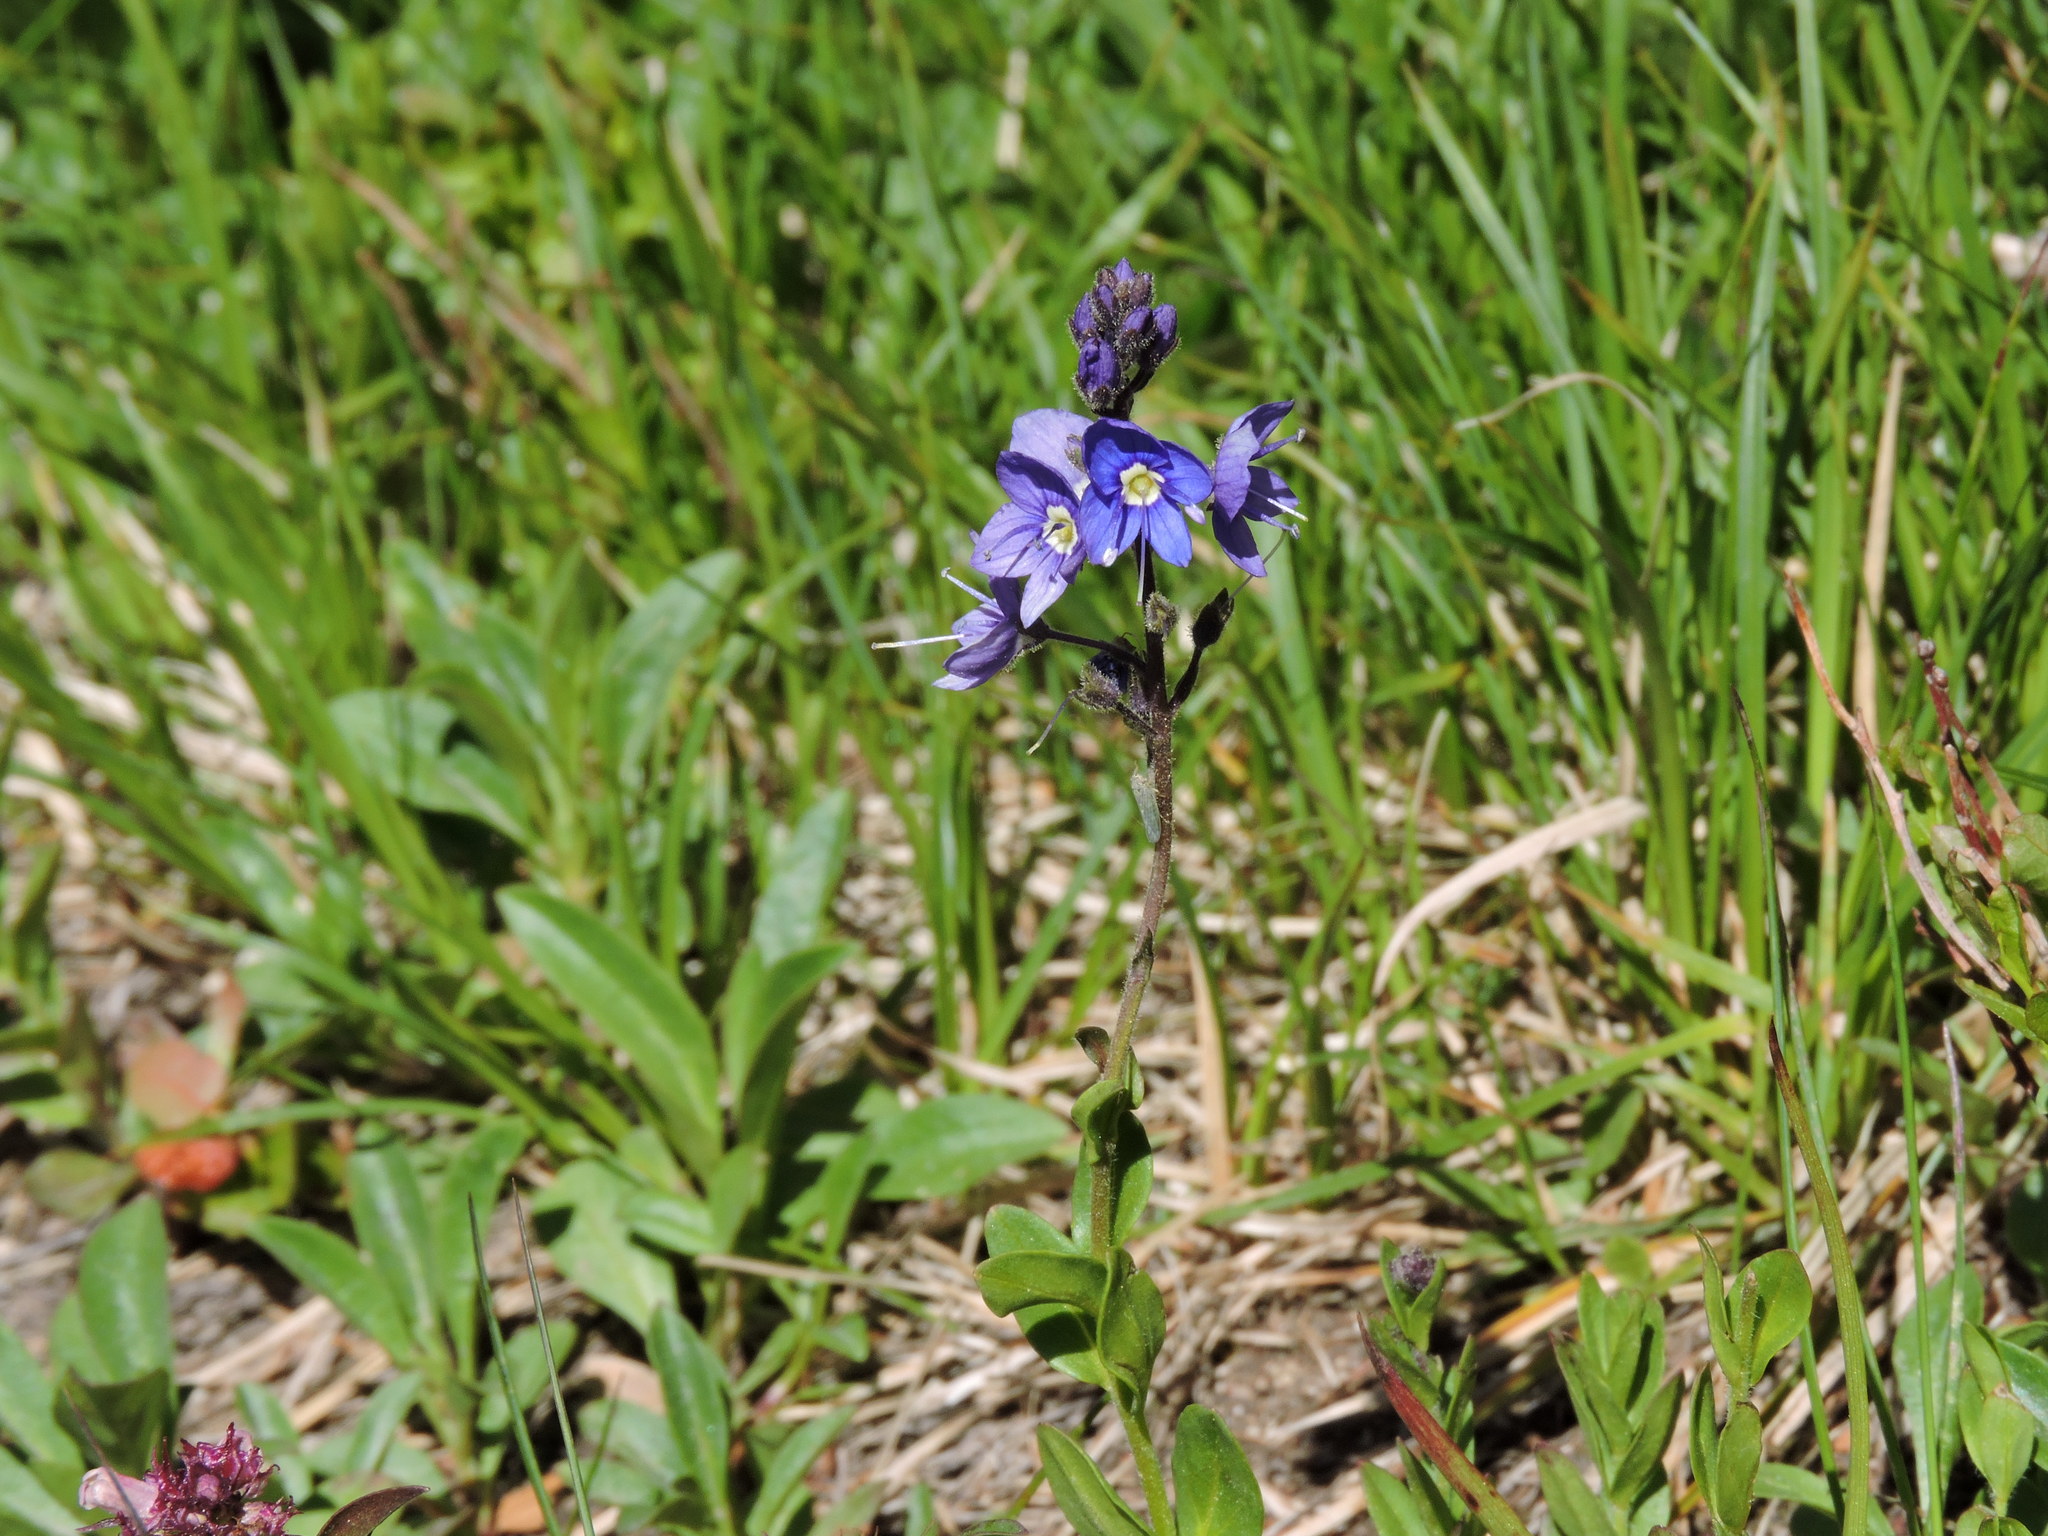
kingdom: Plantae
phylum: Tracheophyta
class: Magnoliopsida
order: Lamiales
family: Plantaginaceae
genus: Veronica
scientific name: Veronica cusickii
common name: Cusick's speedwell
